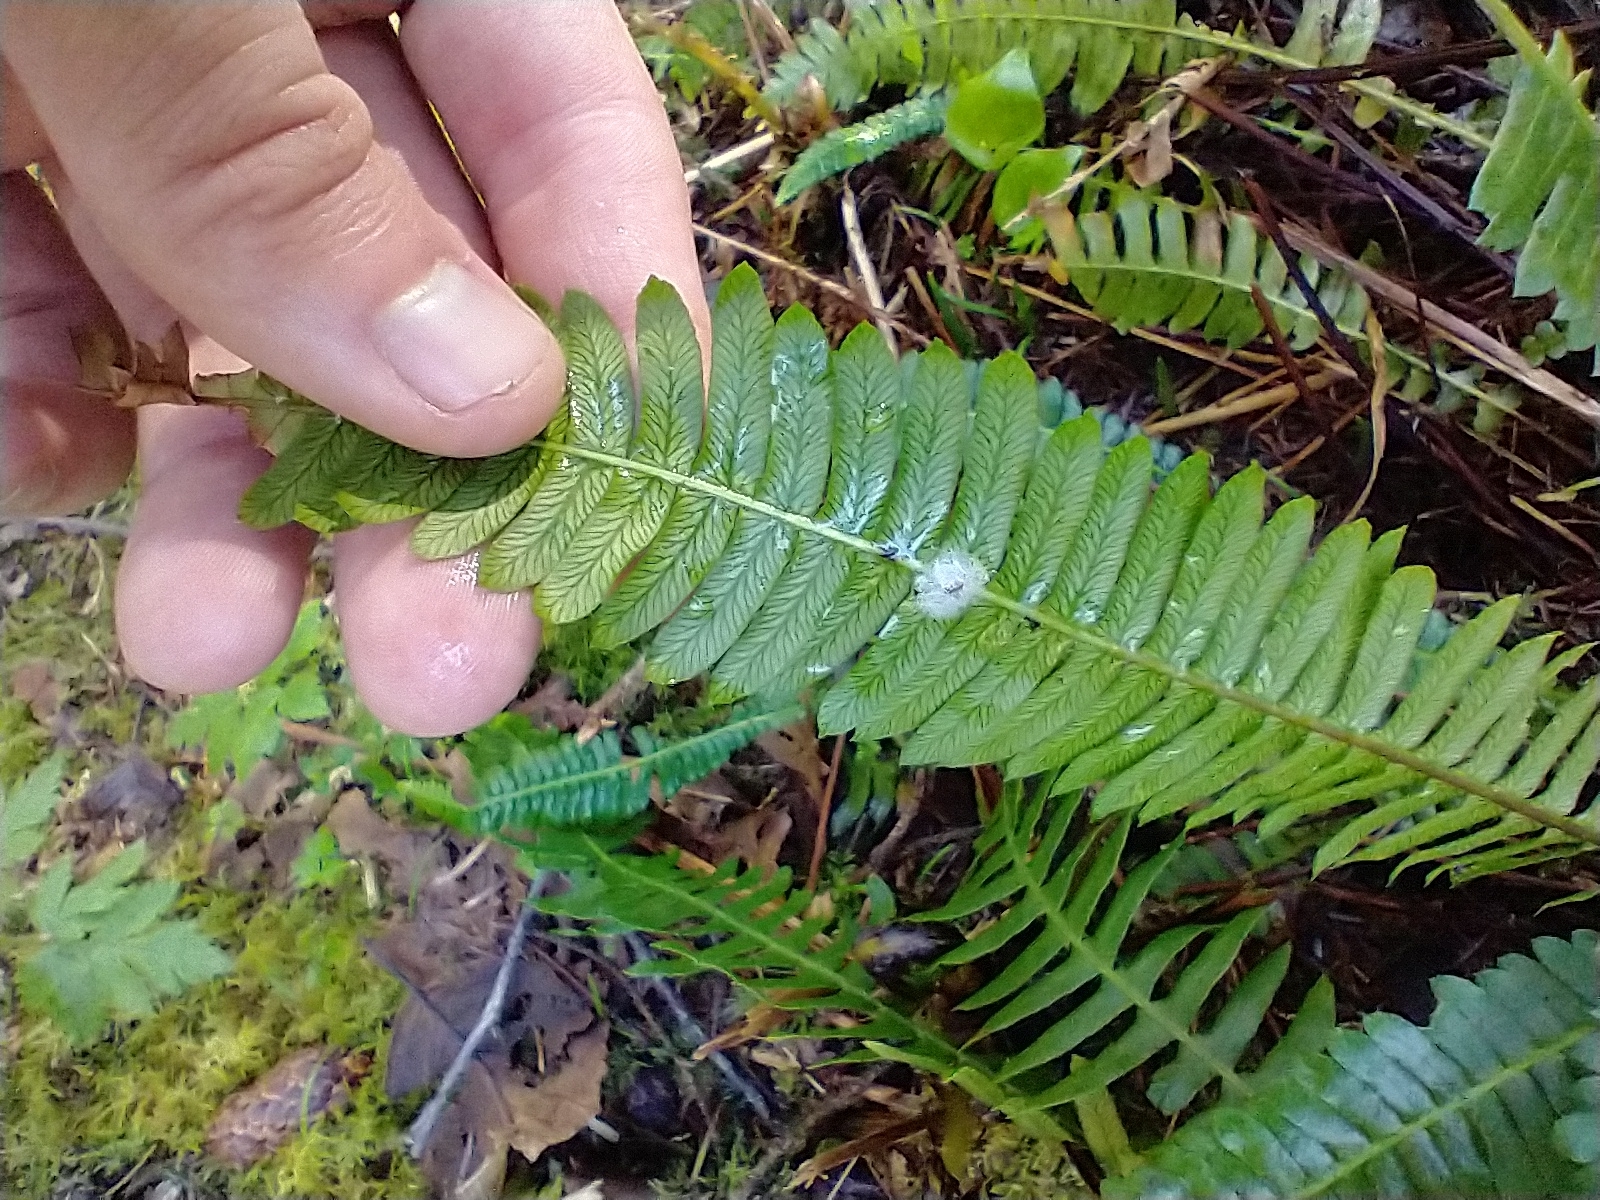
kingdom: Plantae
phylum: Tracheophyta
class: Polypodiopsida
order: Polypodiales
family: Blechnaceae
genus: Struthiopteris
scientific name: Struthiopteris spicant
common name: Deer fern
